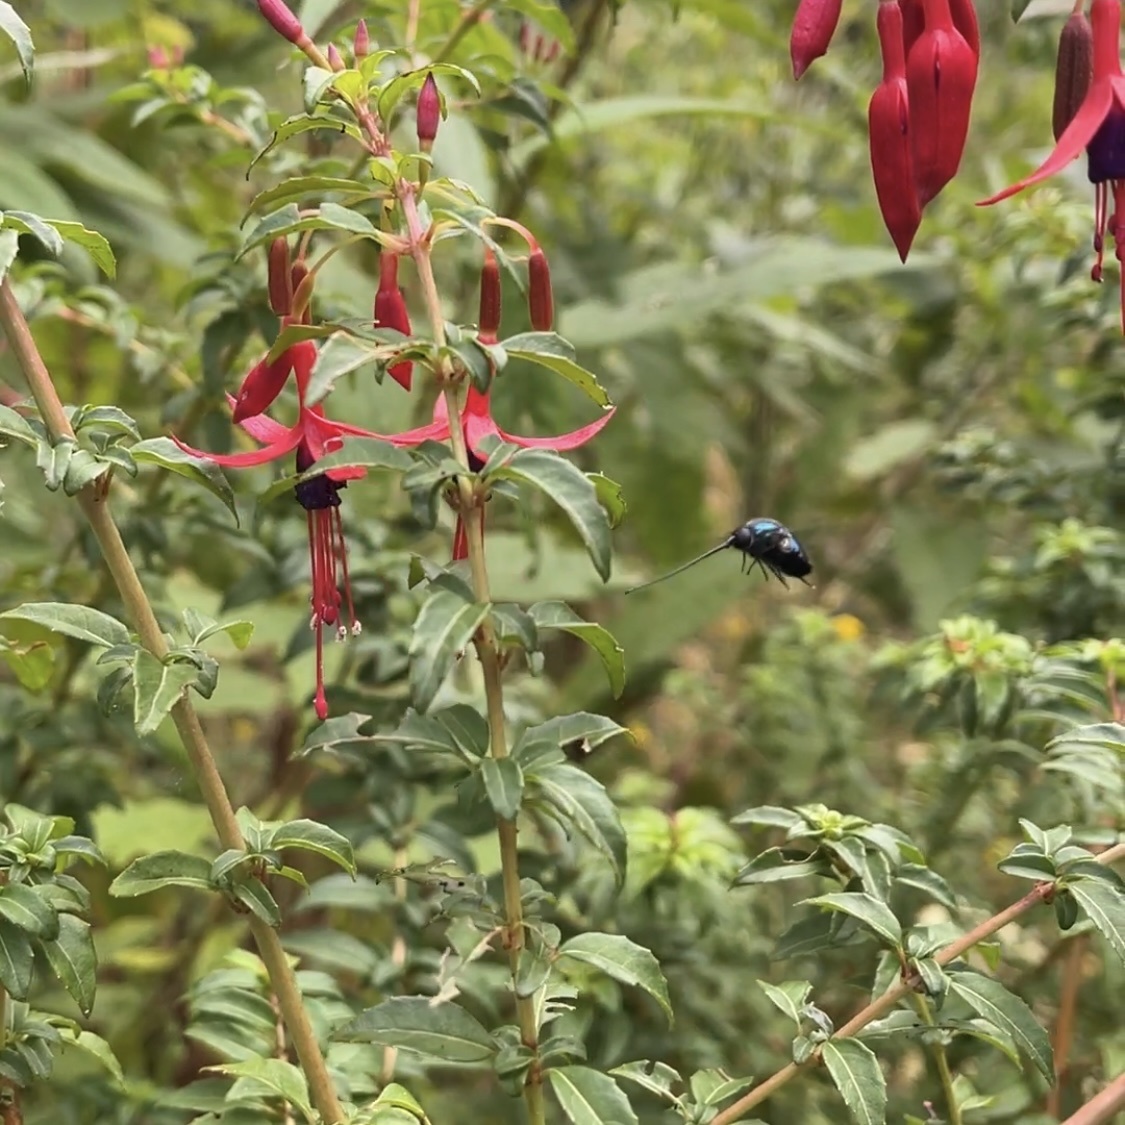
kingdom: Animalia
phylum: Arthropoda
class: Insecta
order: Diptera
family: Acroceridae
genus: Lasia
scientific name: Lasia nigritarsis
